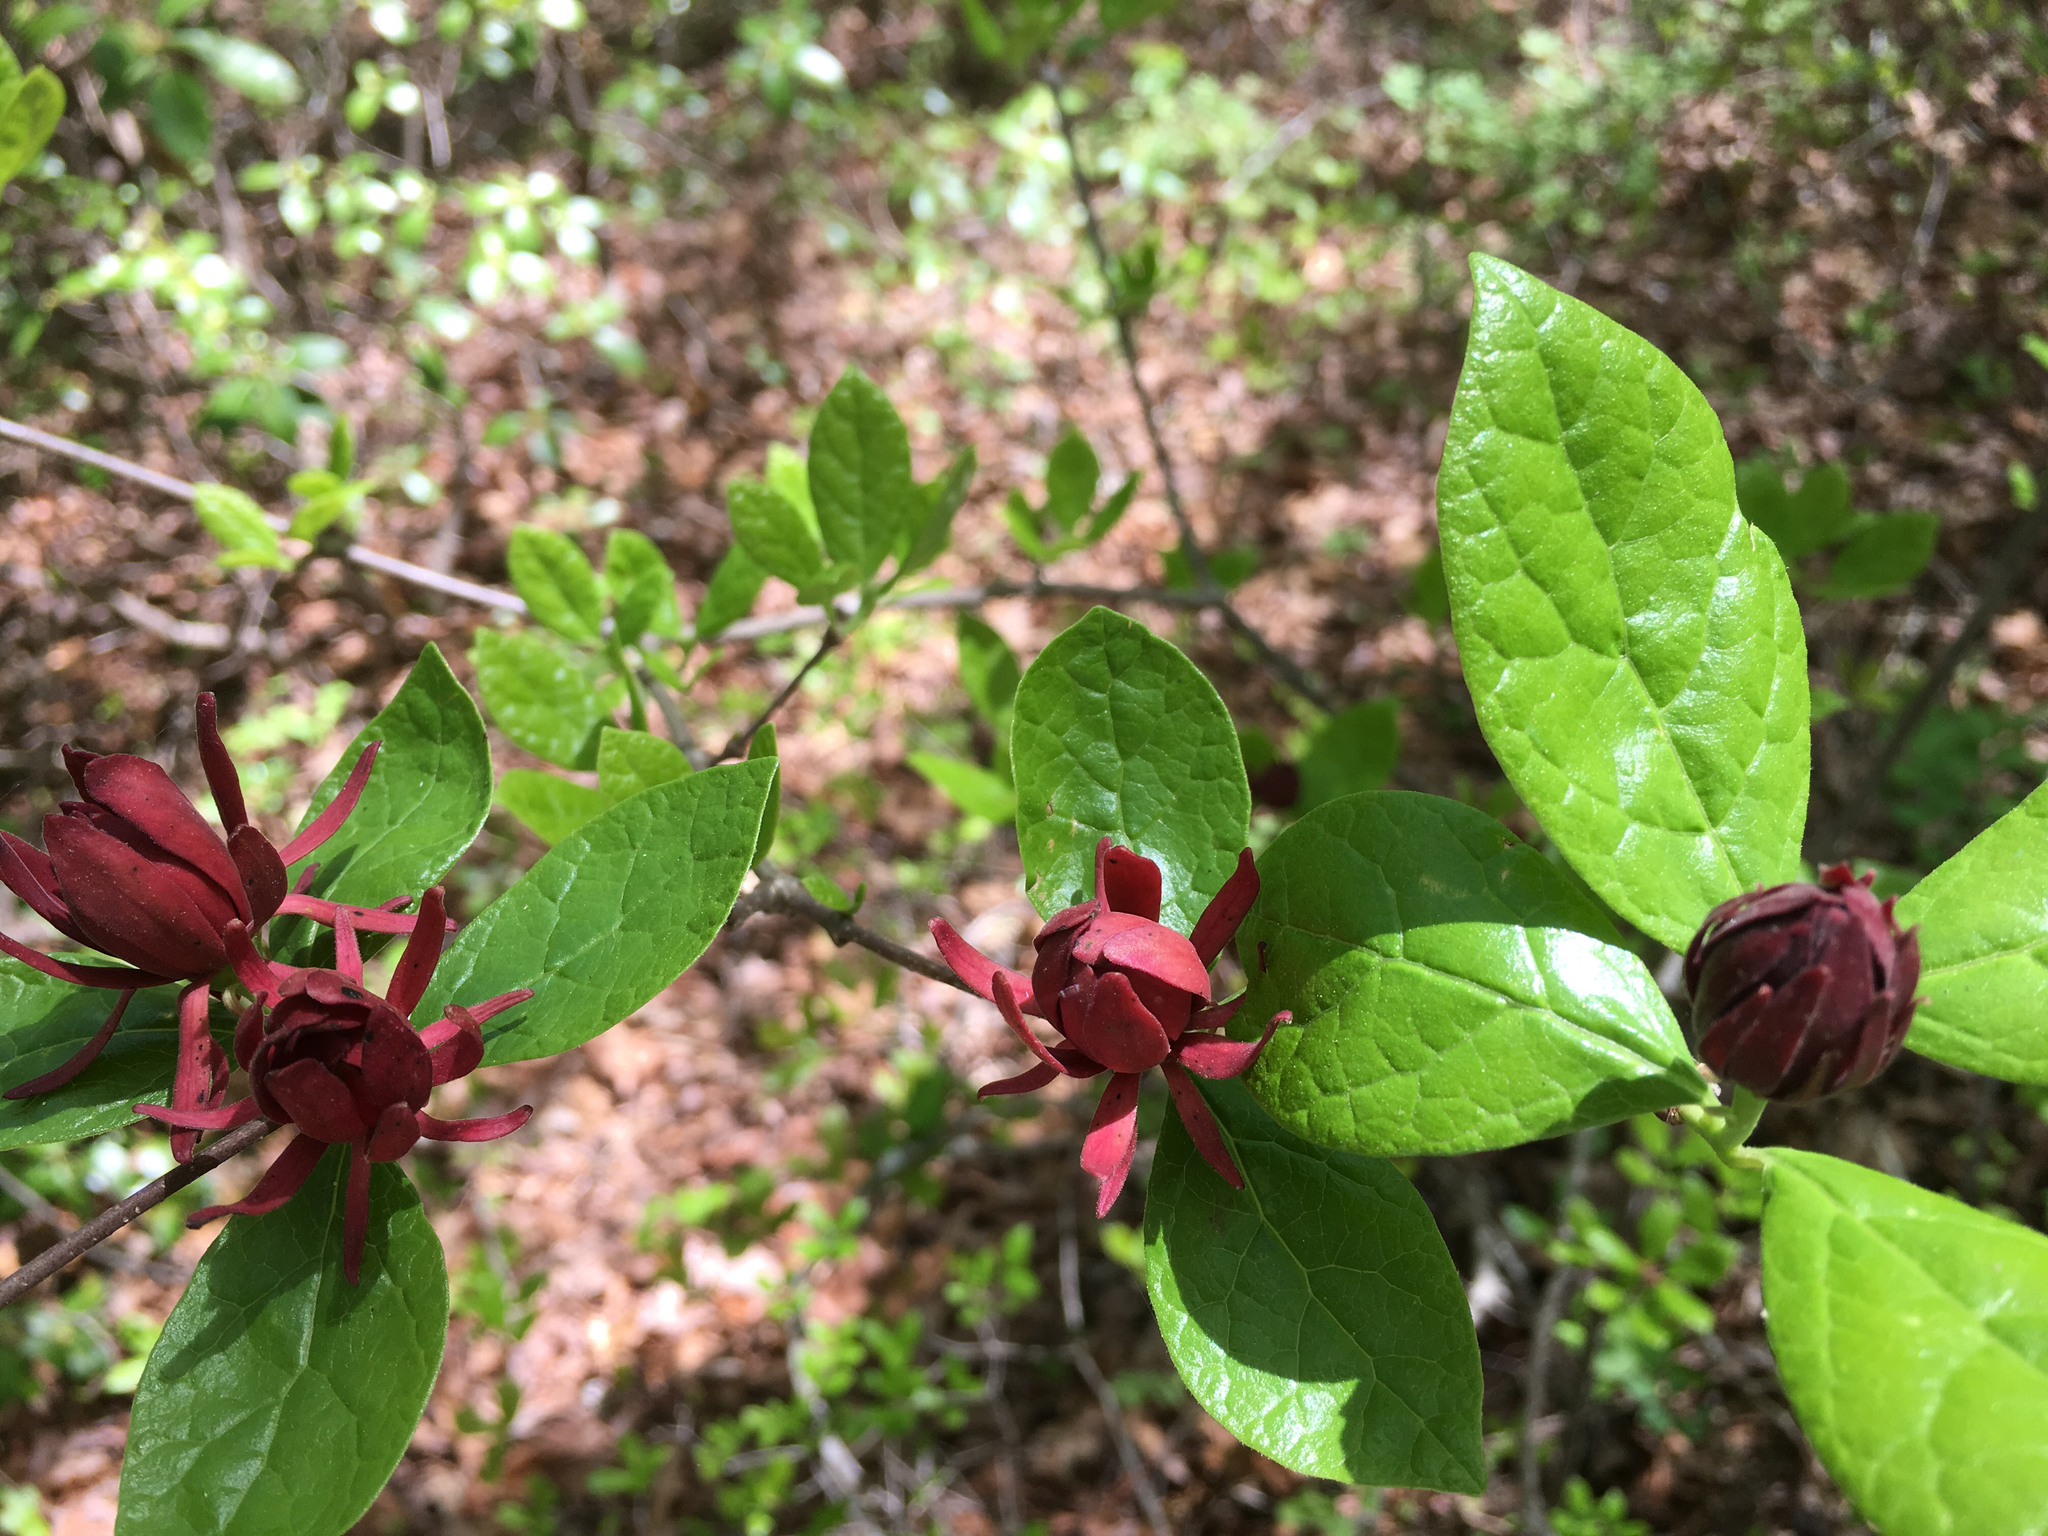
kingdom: Plantae
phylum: Tracheophyta
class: Magnoliopsida
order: Laurales
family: Calycanthaceae
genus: Calycanthus
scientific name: Calycanthus floridus
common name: Carolina-allspice
